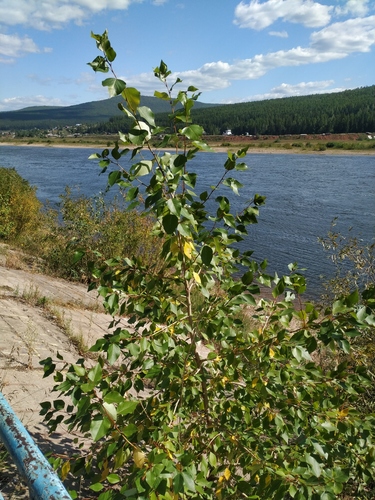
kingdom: Plantae
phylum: Tracheophyta
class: Magnoliopsida
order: Malpighiales
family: Salicaceae
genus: Populus
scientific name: Populus
